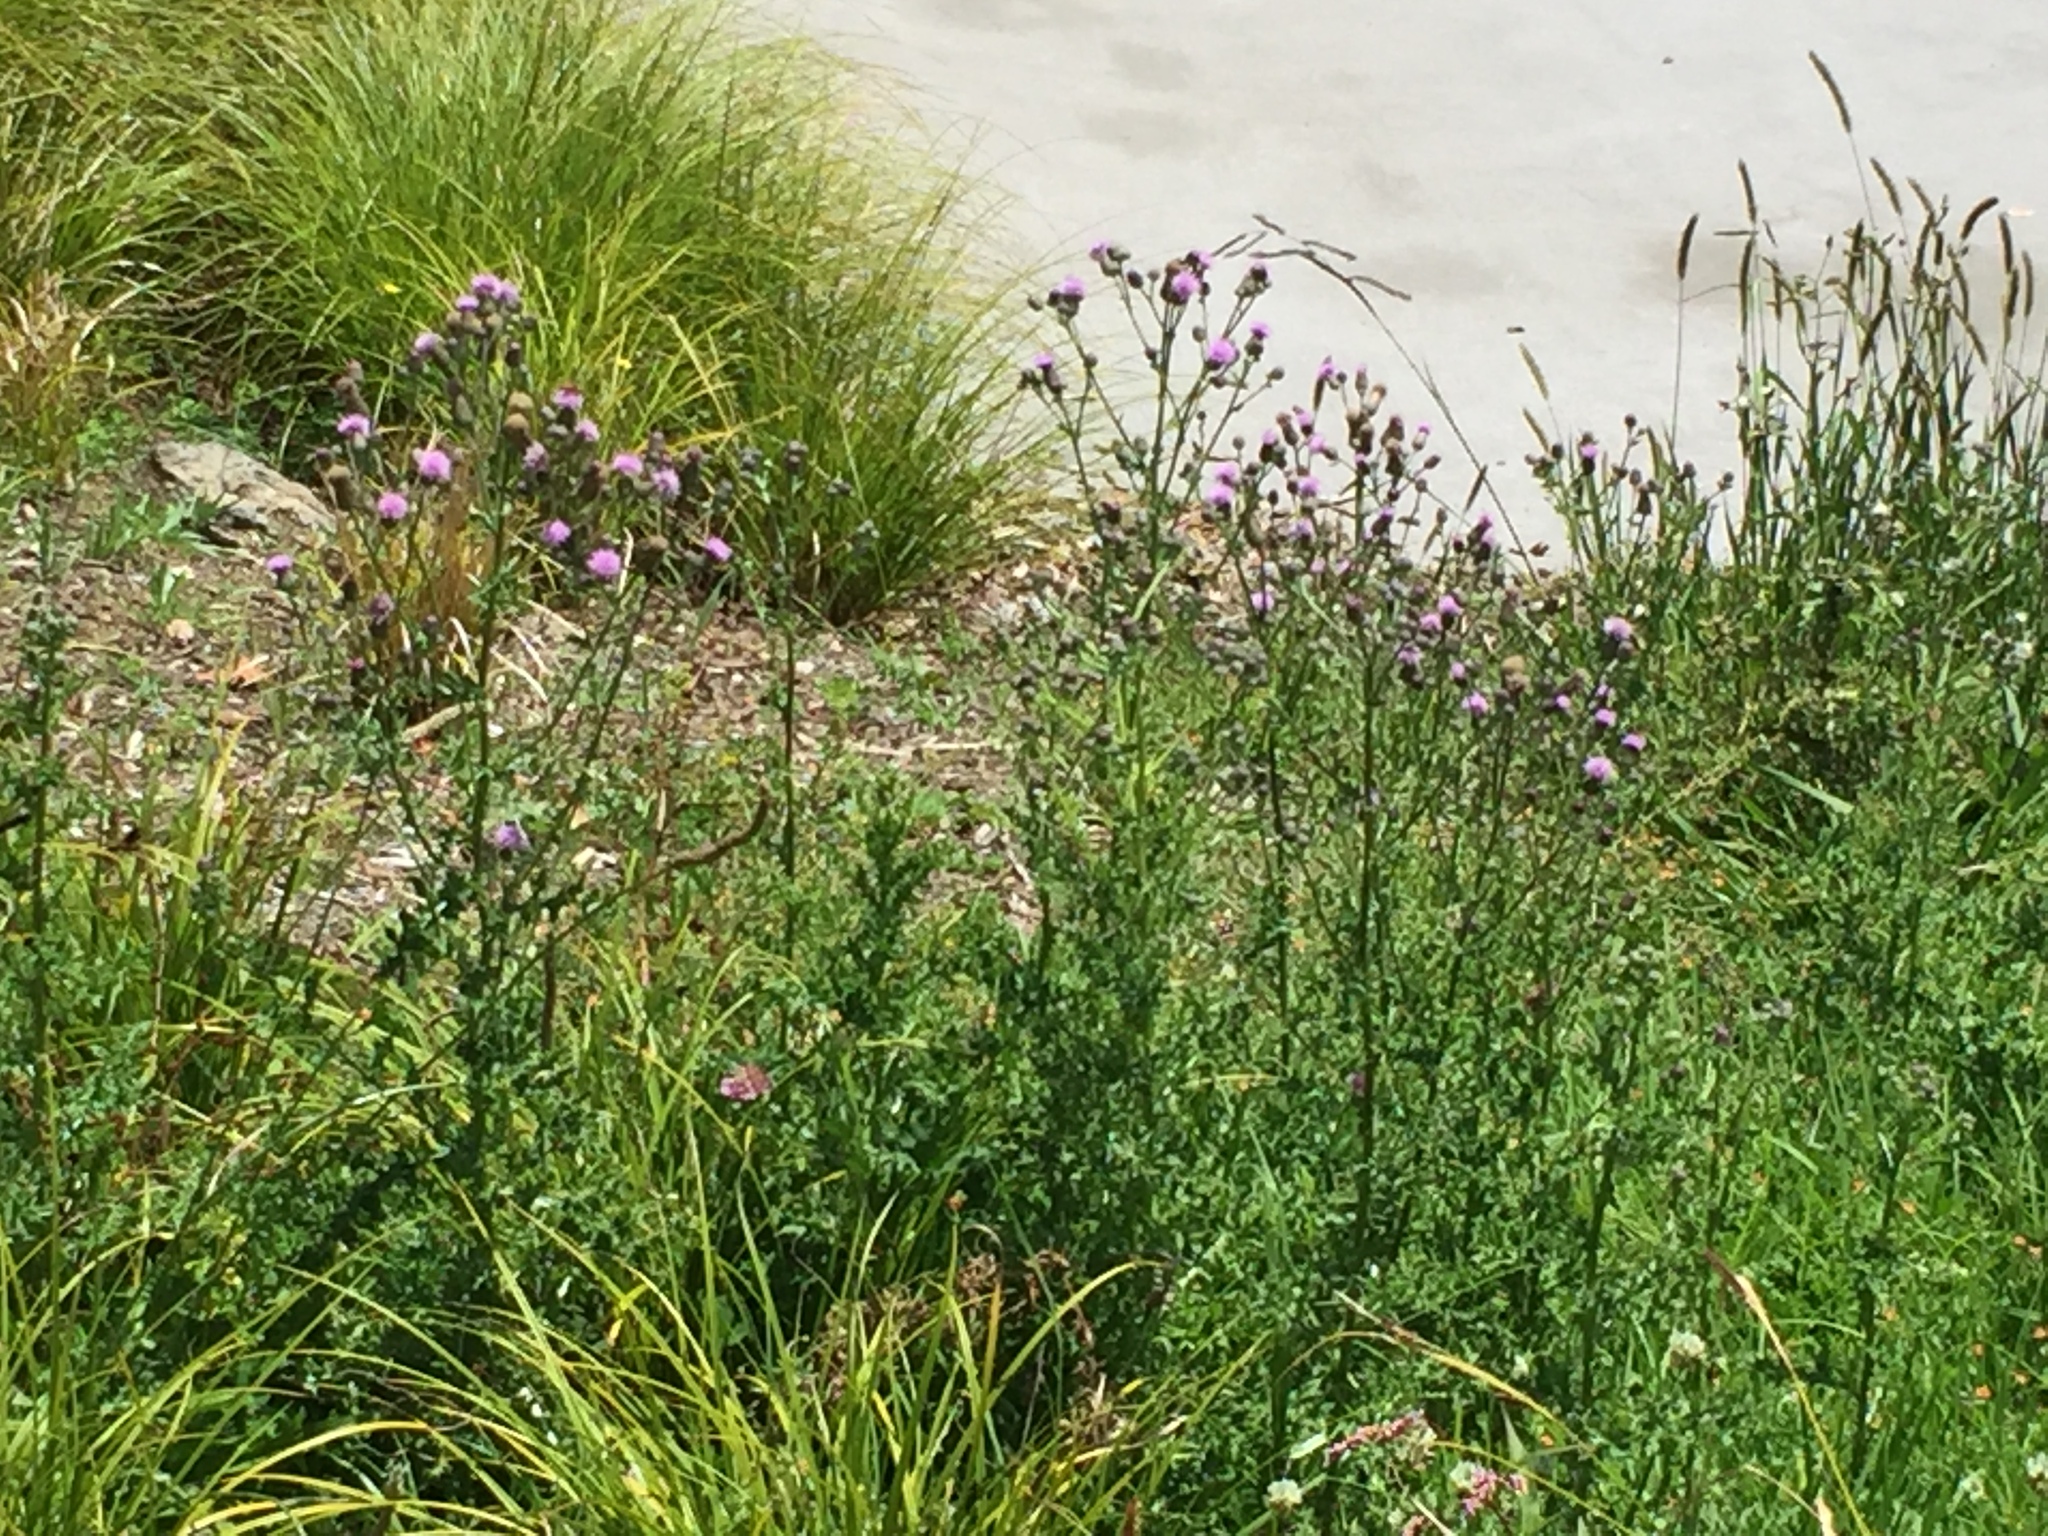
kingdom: Plantae
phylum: Tracheophyta
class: Magnoliopsida
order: Asterales
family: Asteraceae
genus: Cirsium
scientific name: Cirsium arvense
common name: Creeping thistle
